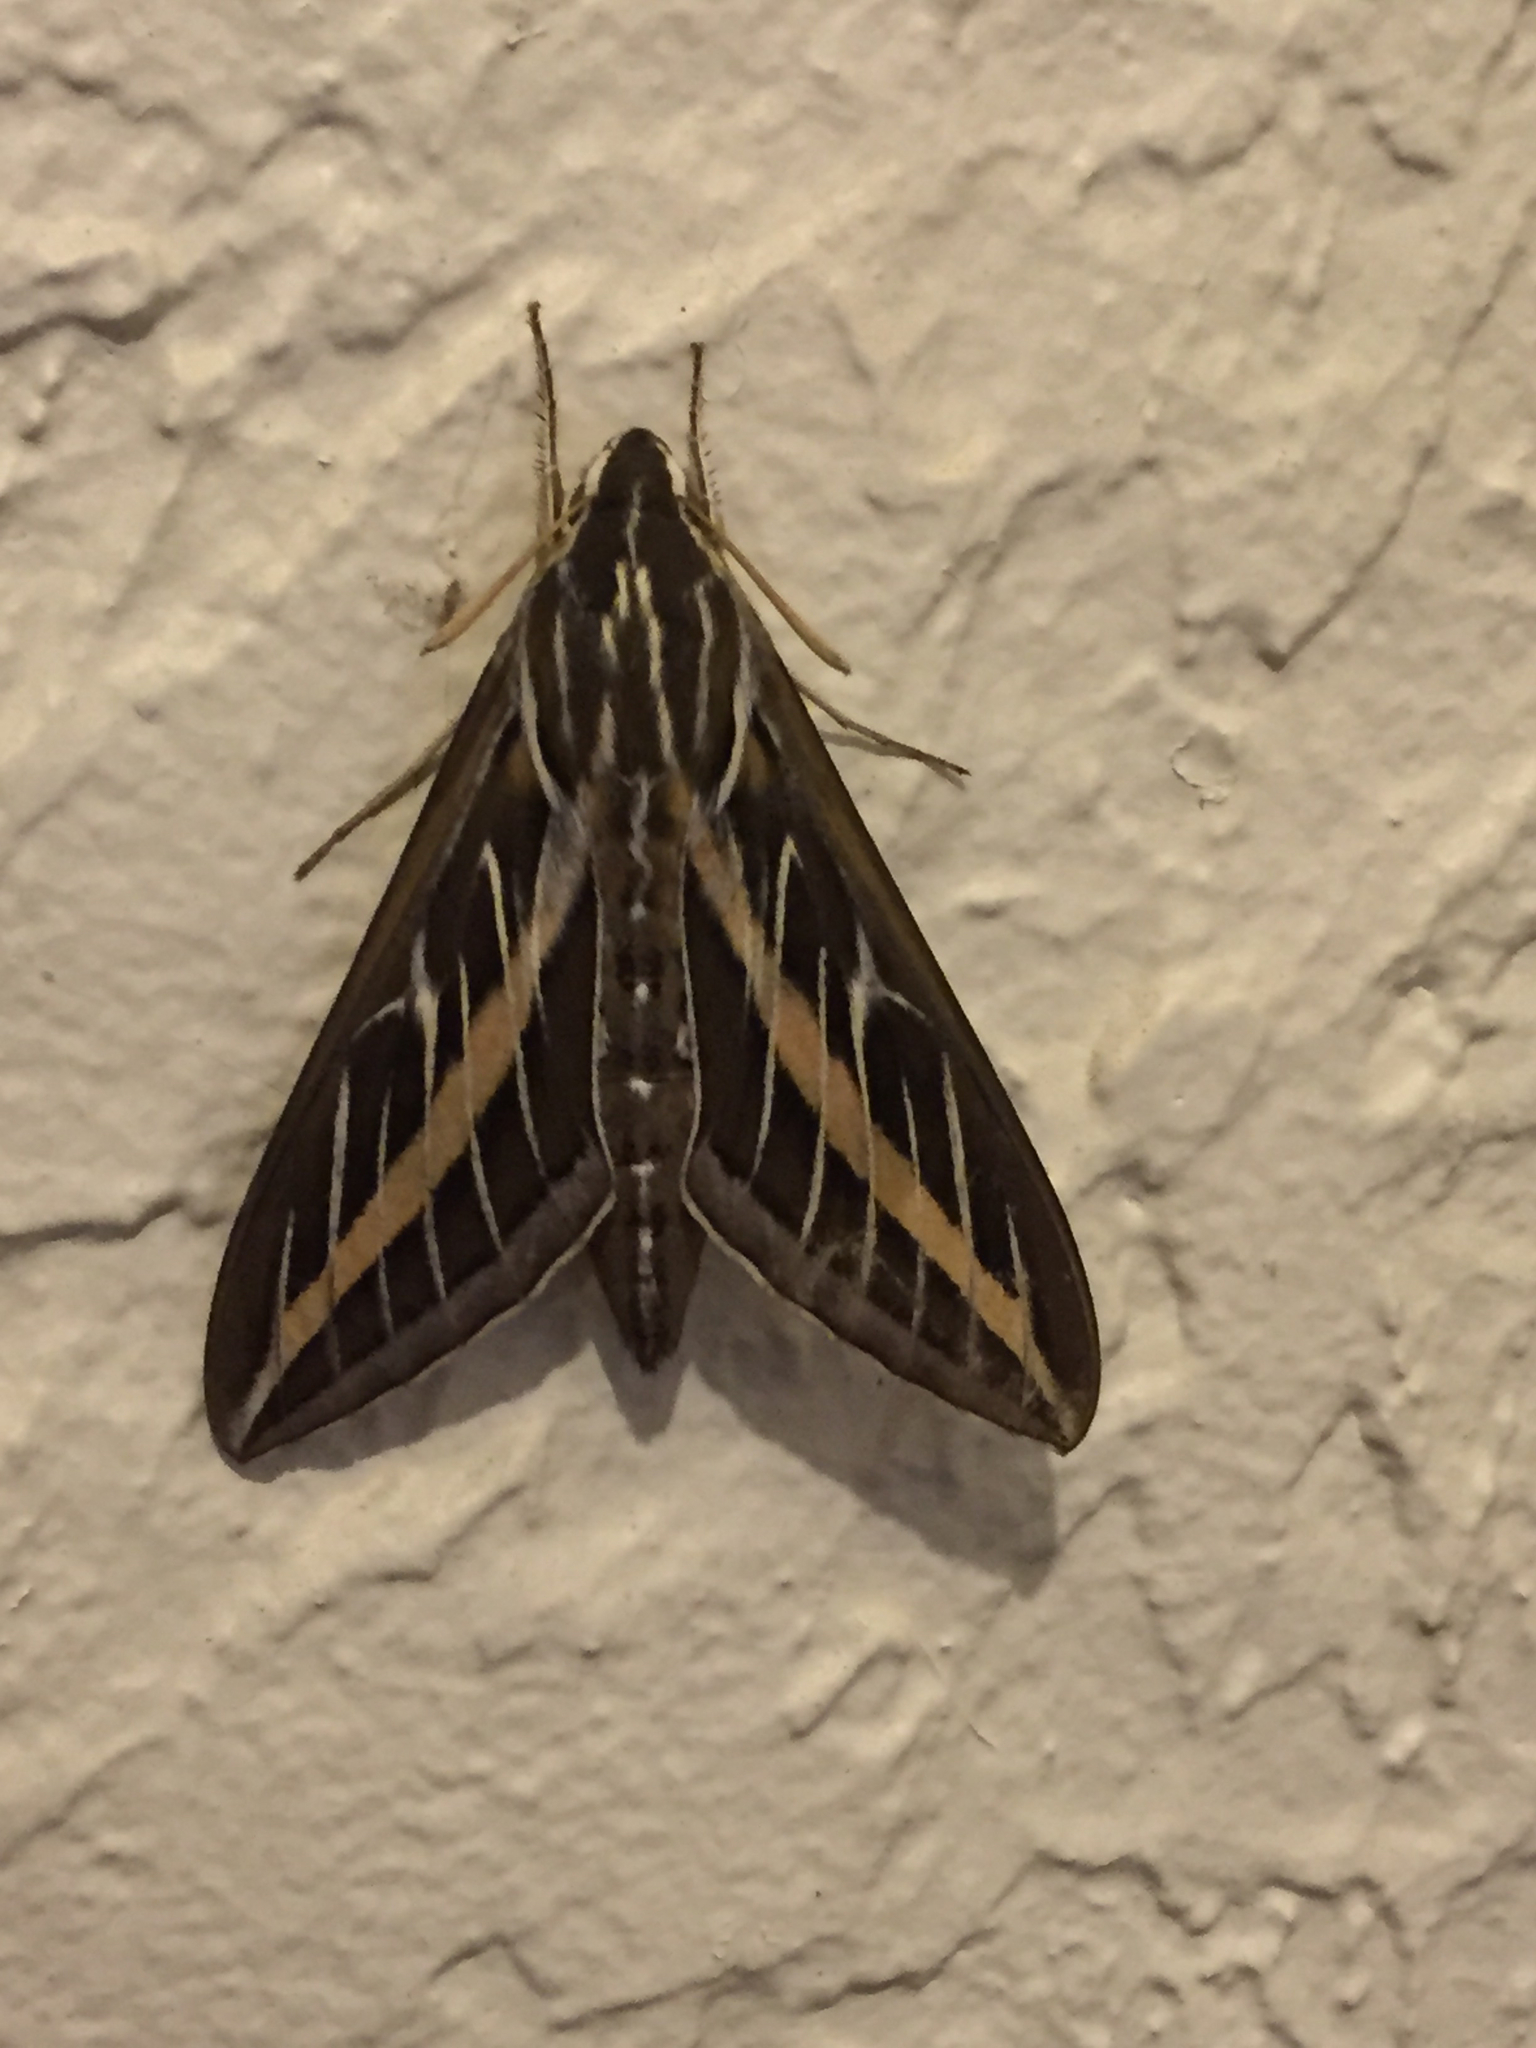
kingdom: Animalia
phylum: Arthropoda
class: Insecta
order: Lepidoptera
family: Sphingidae
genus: Hyles
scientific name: Hyles lineata
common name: White-lined sphinx
